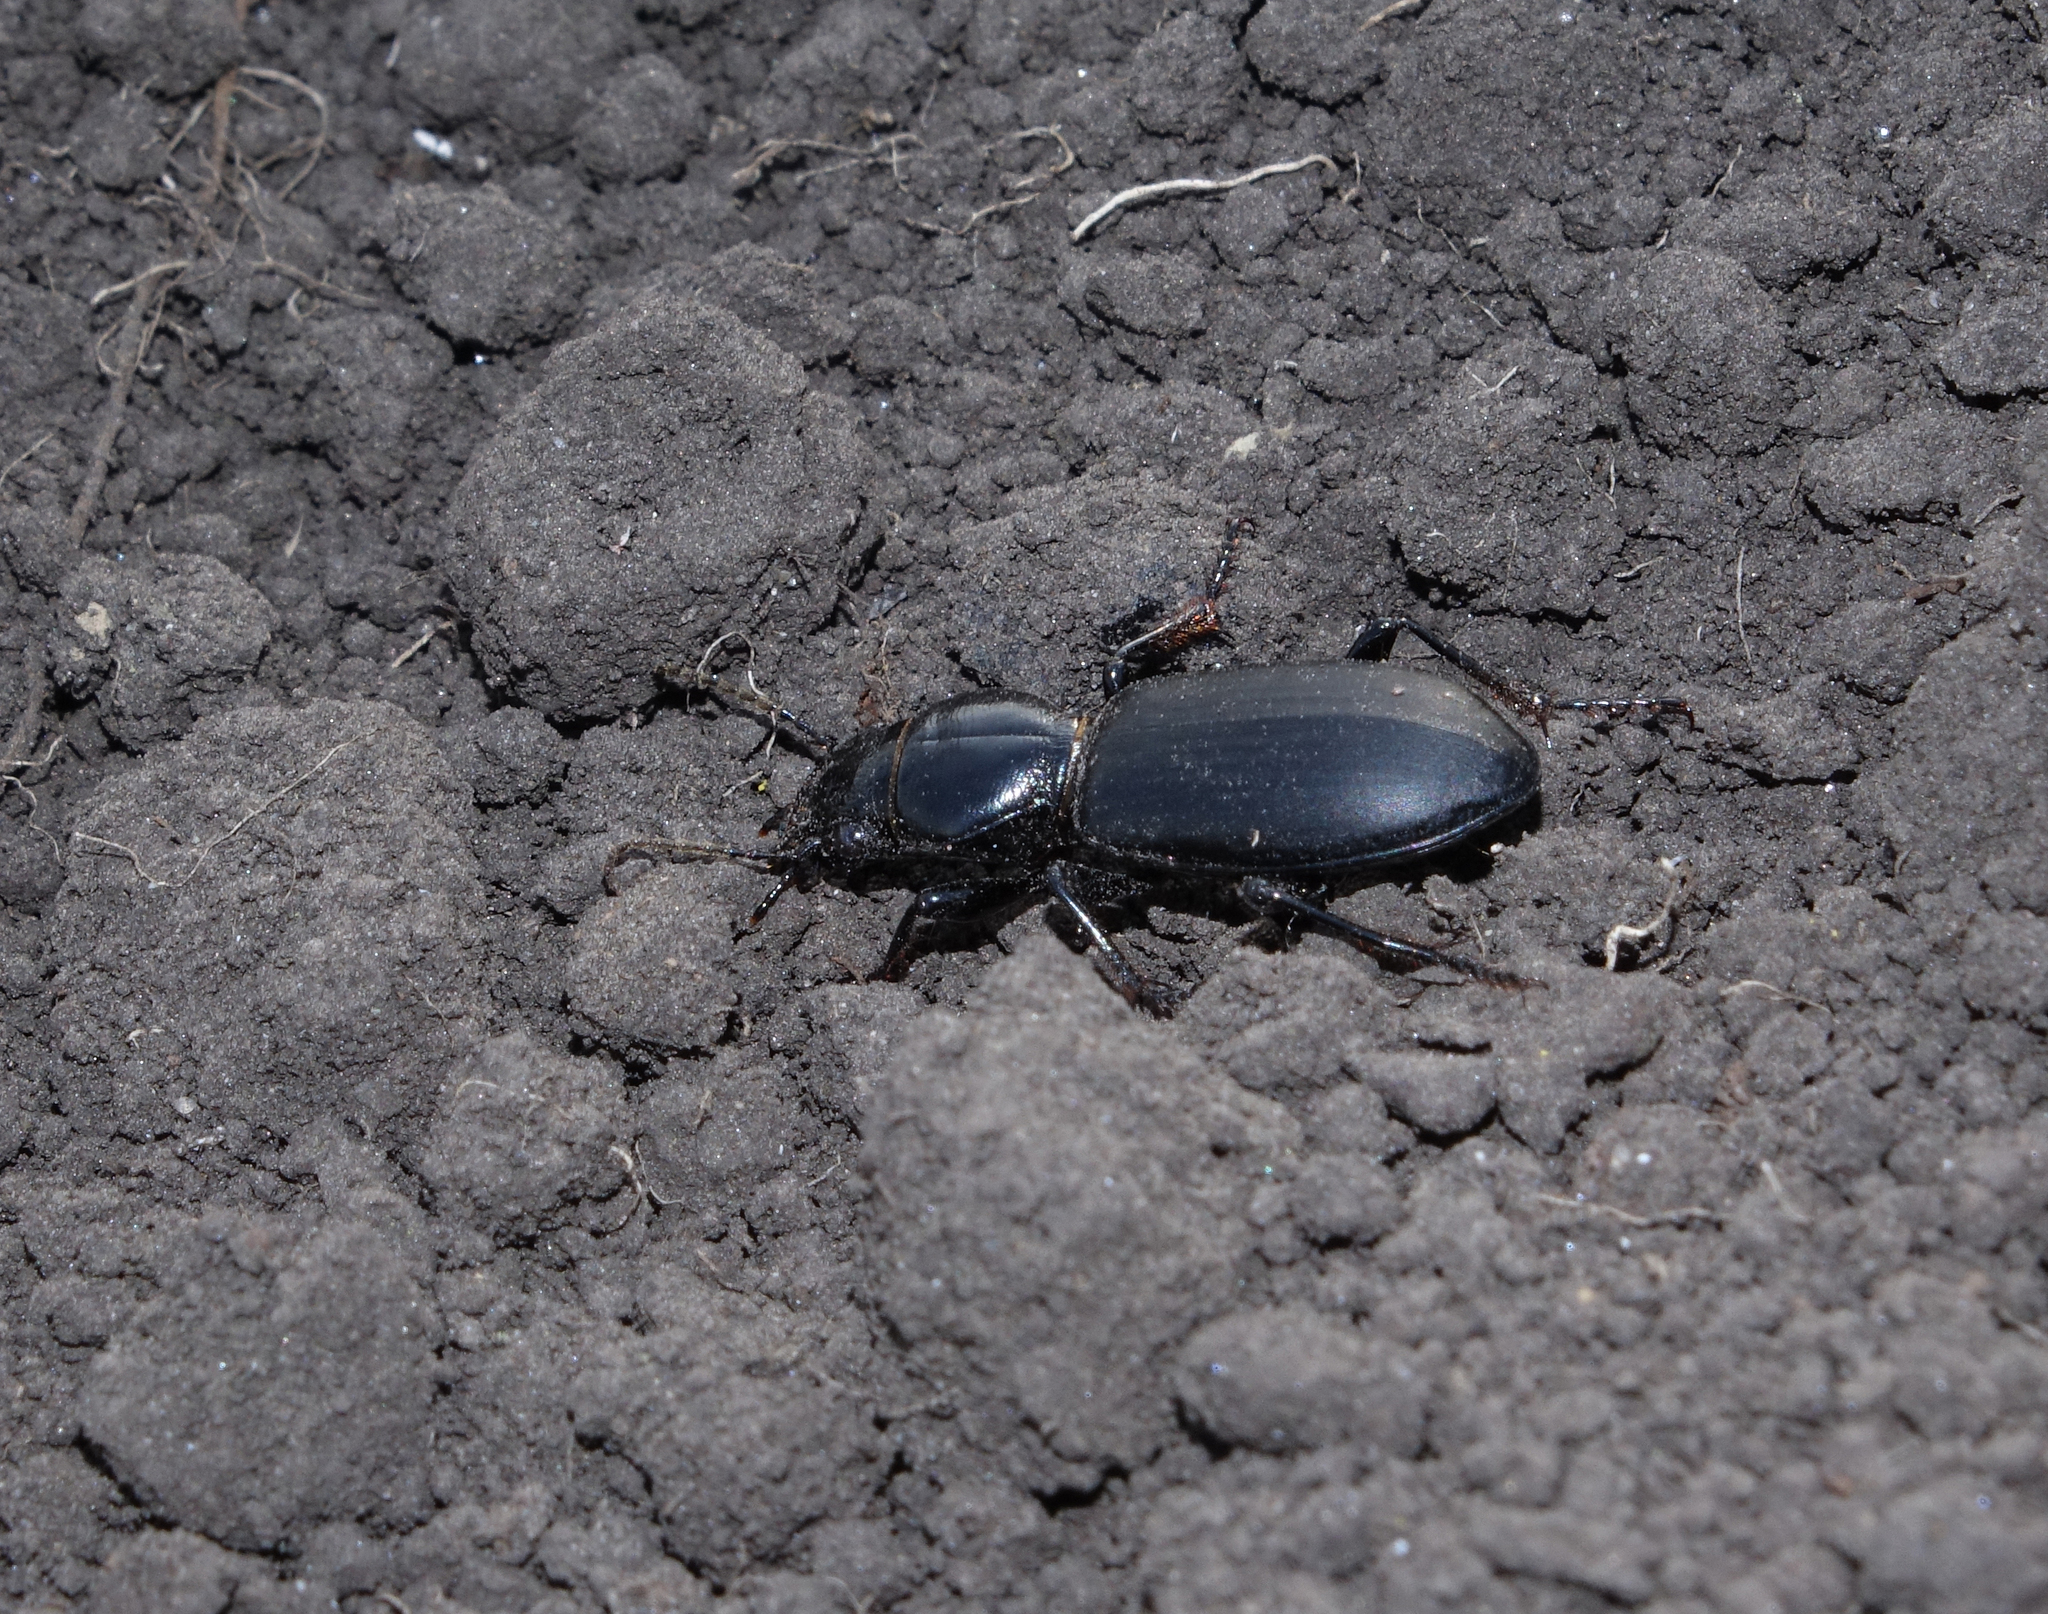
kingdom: Animalia
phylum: Arthropoda
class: Insecta
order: Coleoptera
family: Carabidae
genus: Broscus
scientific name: Broscus cephalotes
